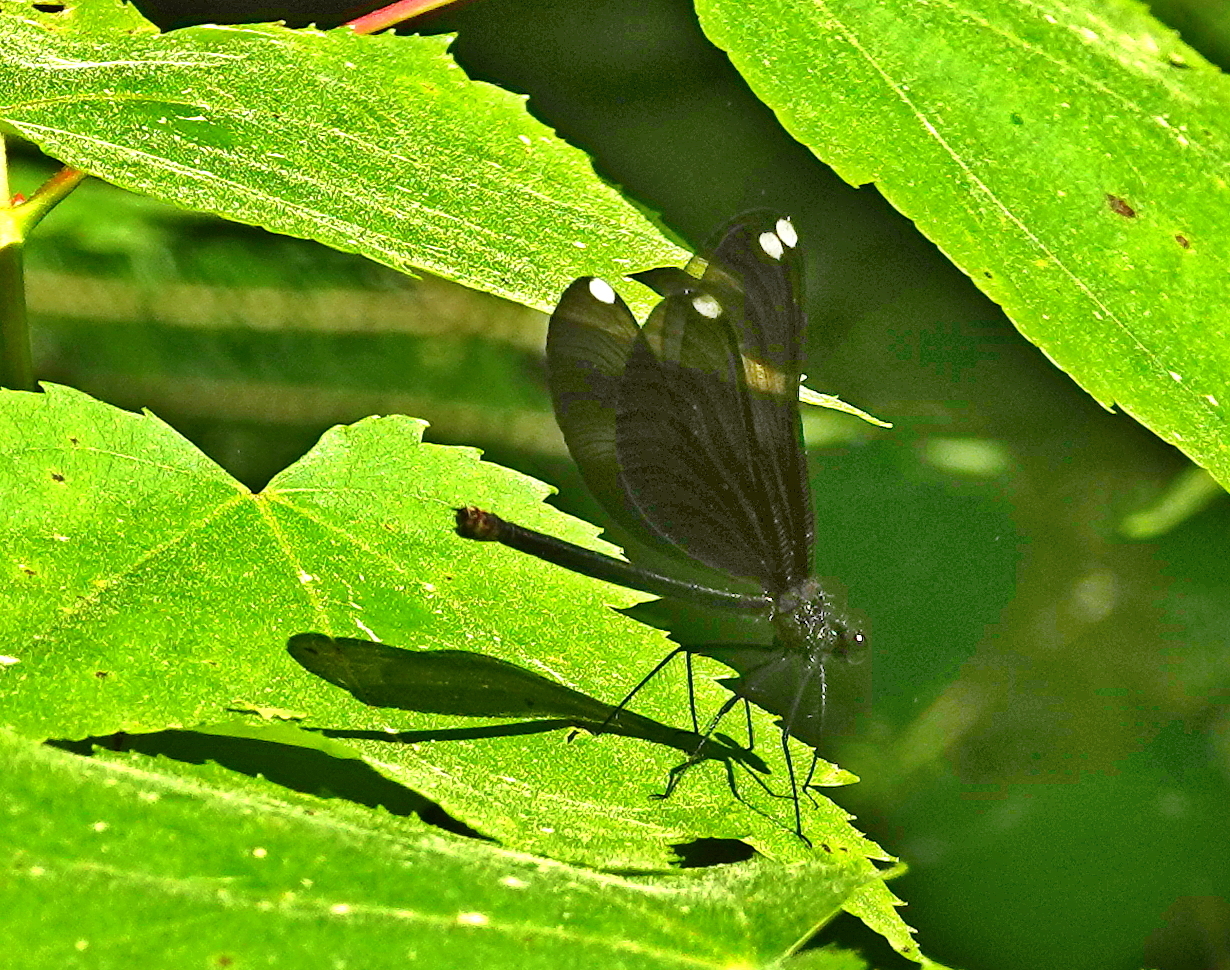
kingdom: Animalia
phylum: Arthropoda
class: Insecta
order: Odonata
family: Calopterygidae
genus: Calopteryx
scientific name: Calopteryx maculata
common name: Ebony jewelwing
